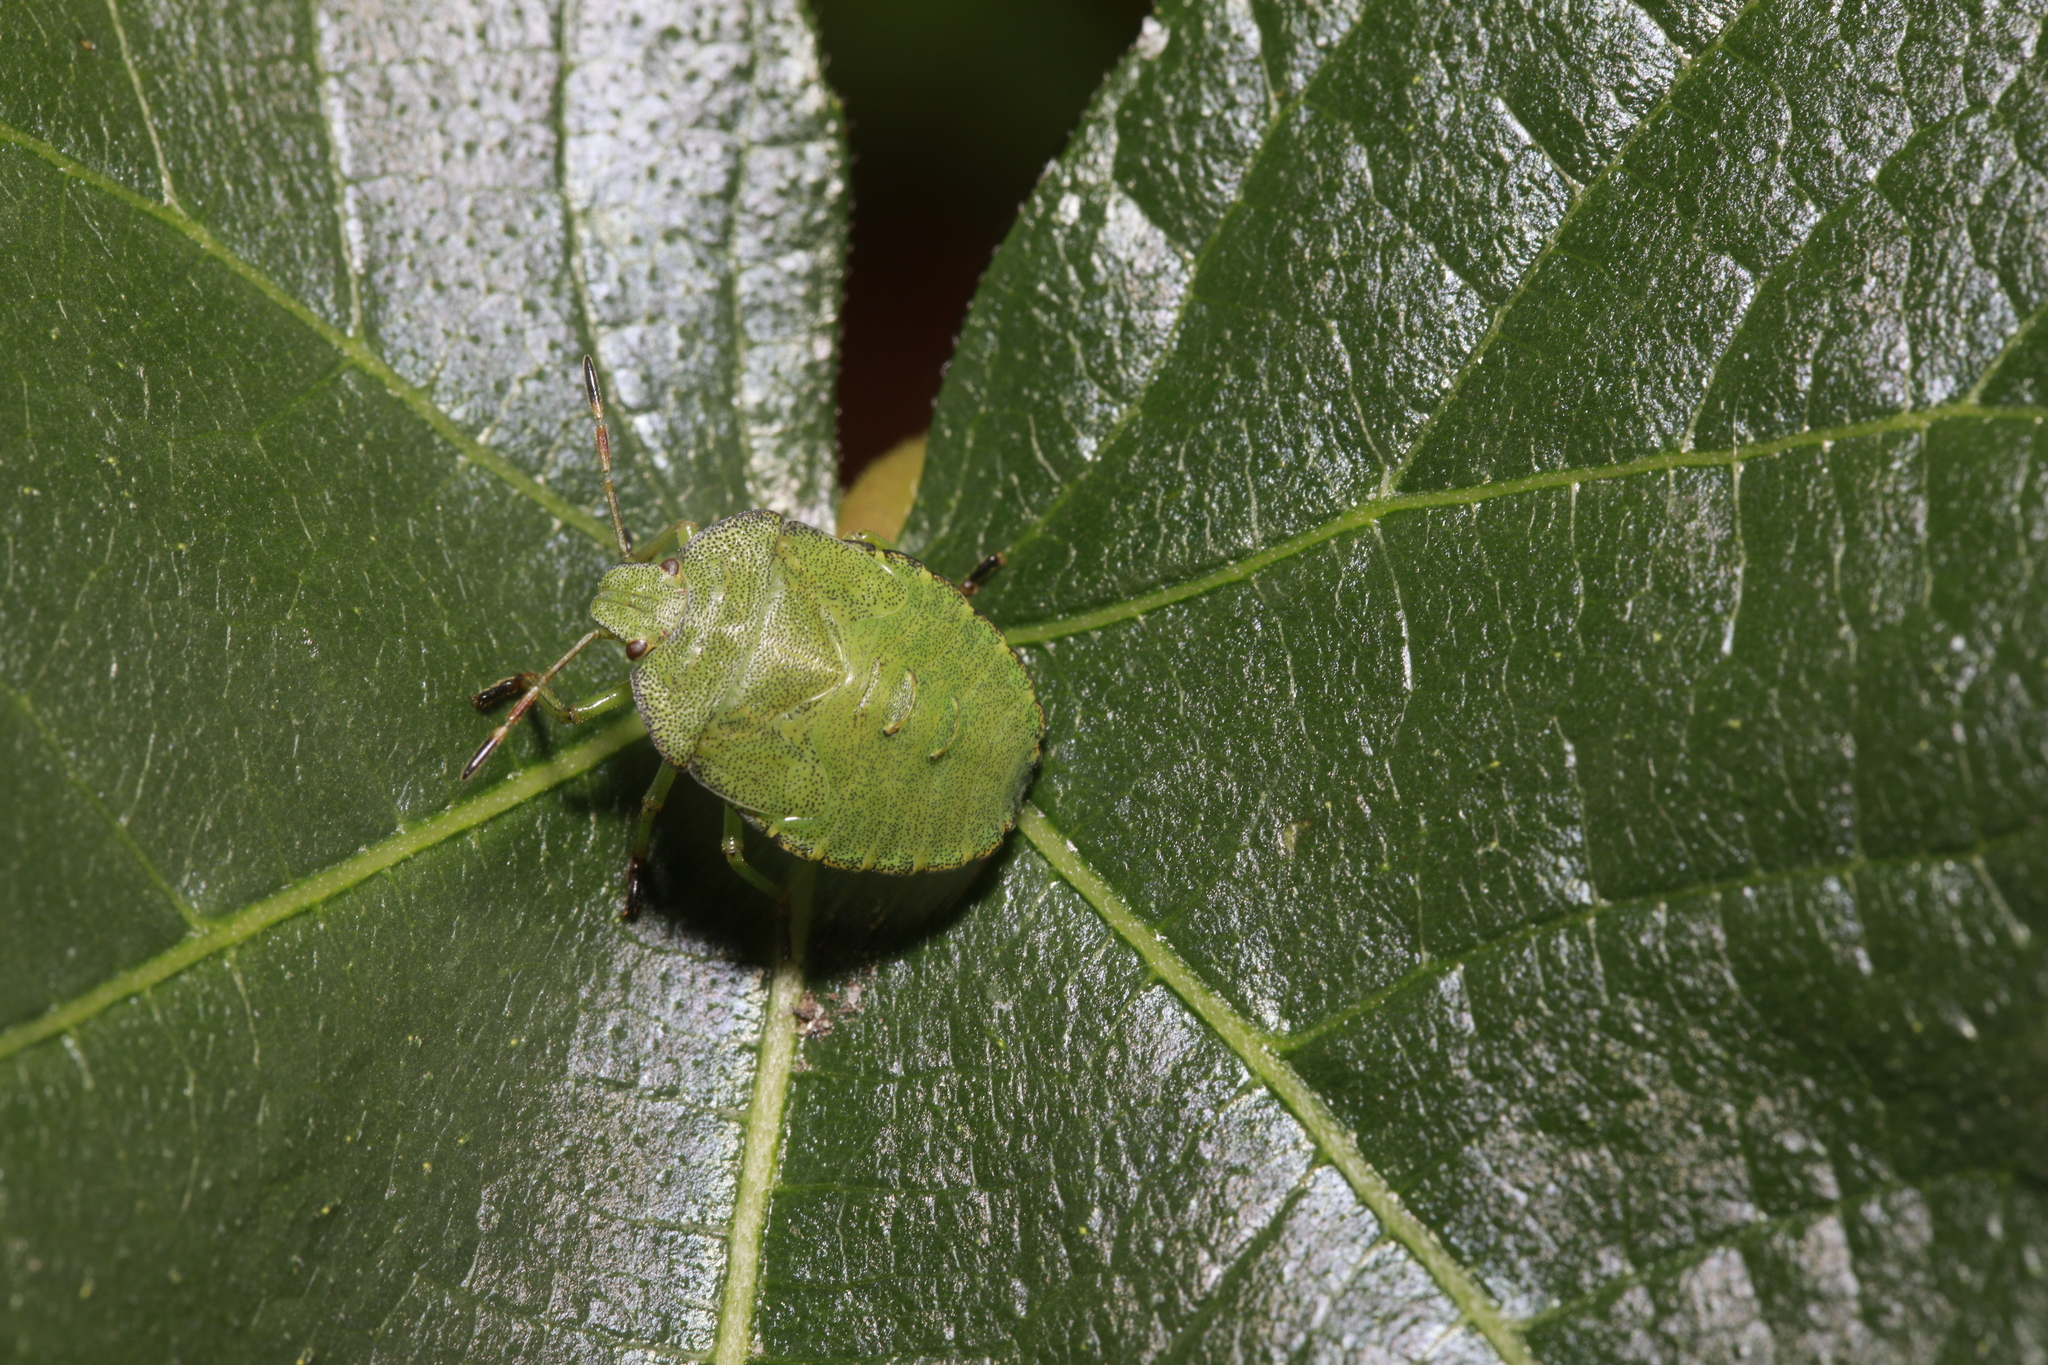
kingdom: Animalia
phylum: Arthropoda
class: Insecta
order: Hemiptera
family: Pentatomidae
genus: Palomena
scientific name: Palomena prasina
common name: Green shieldbug
